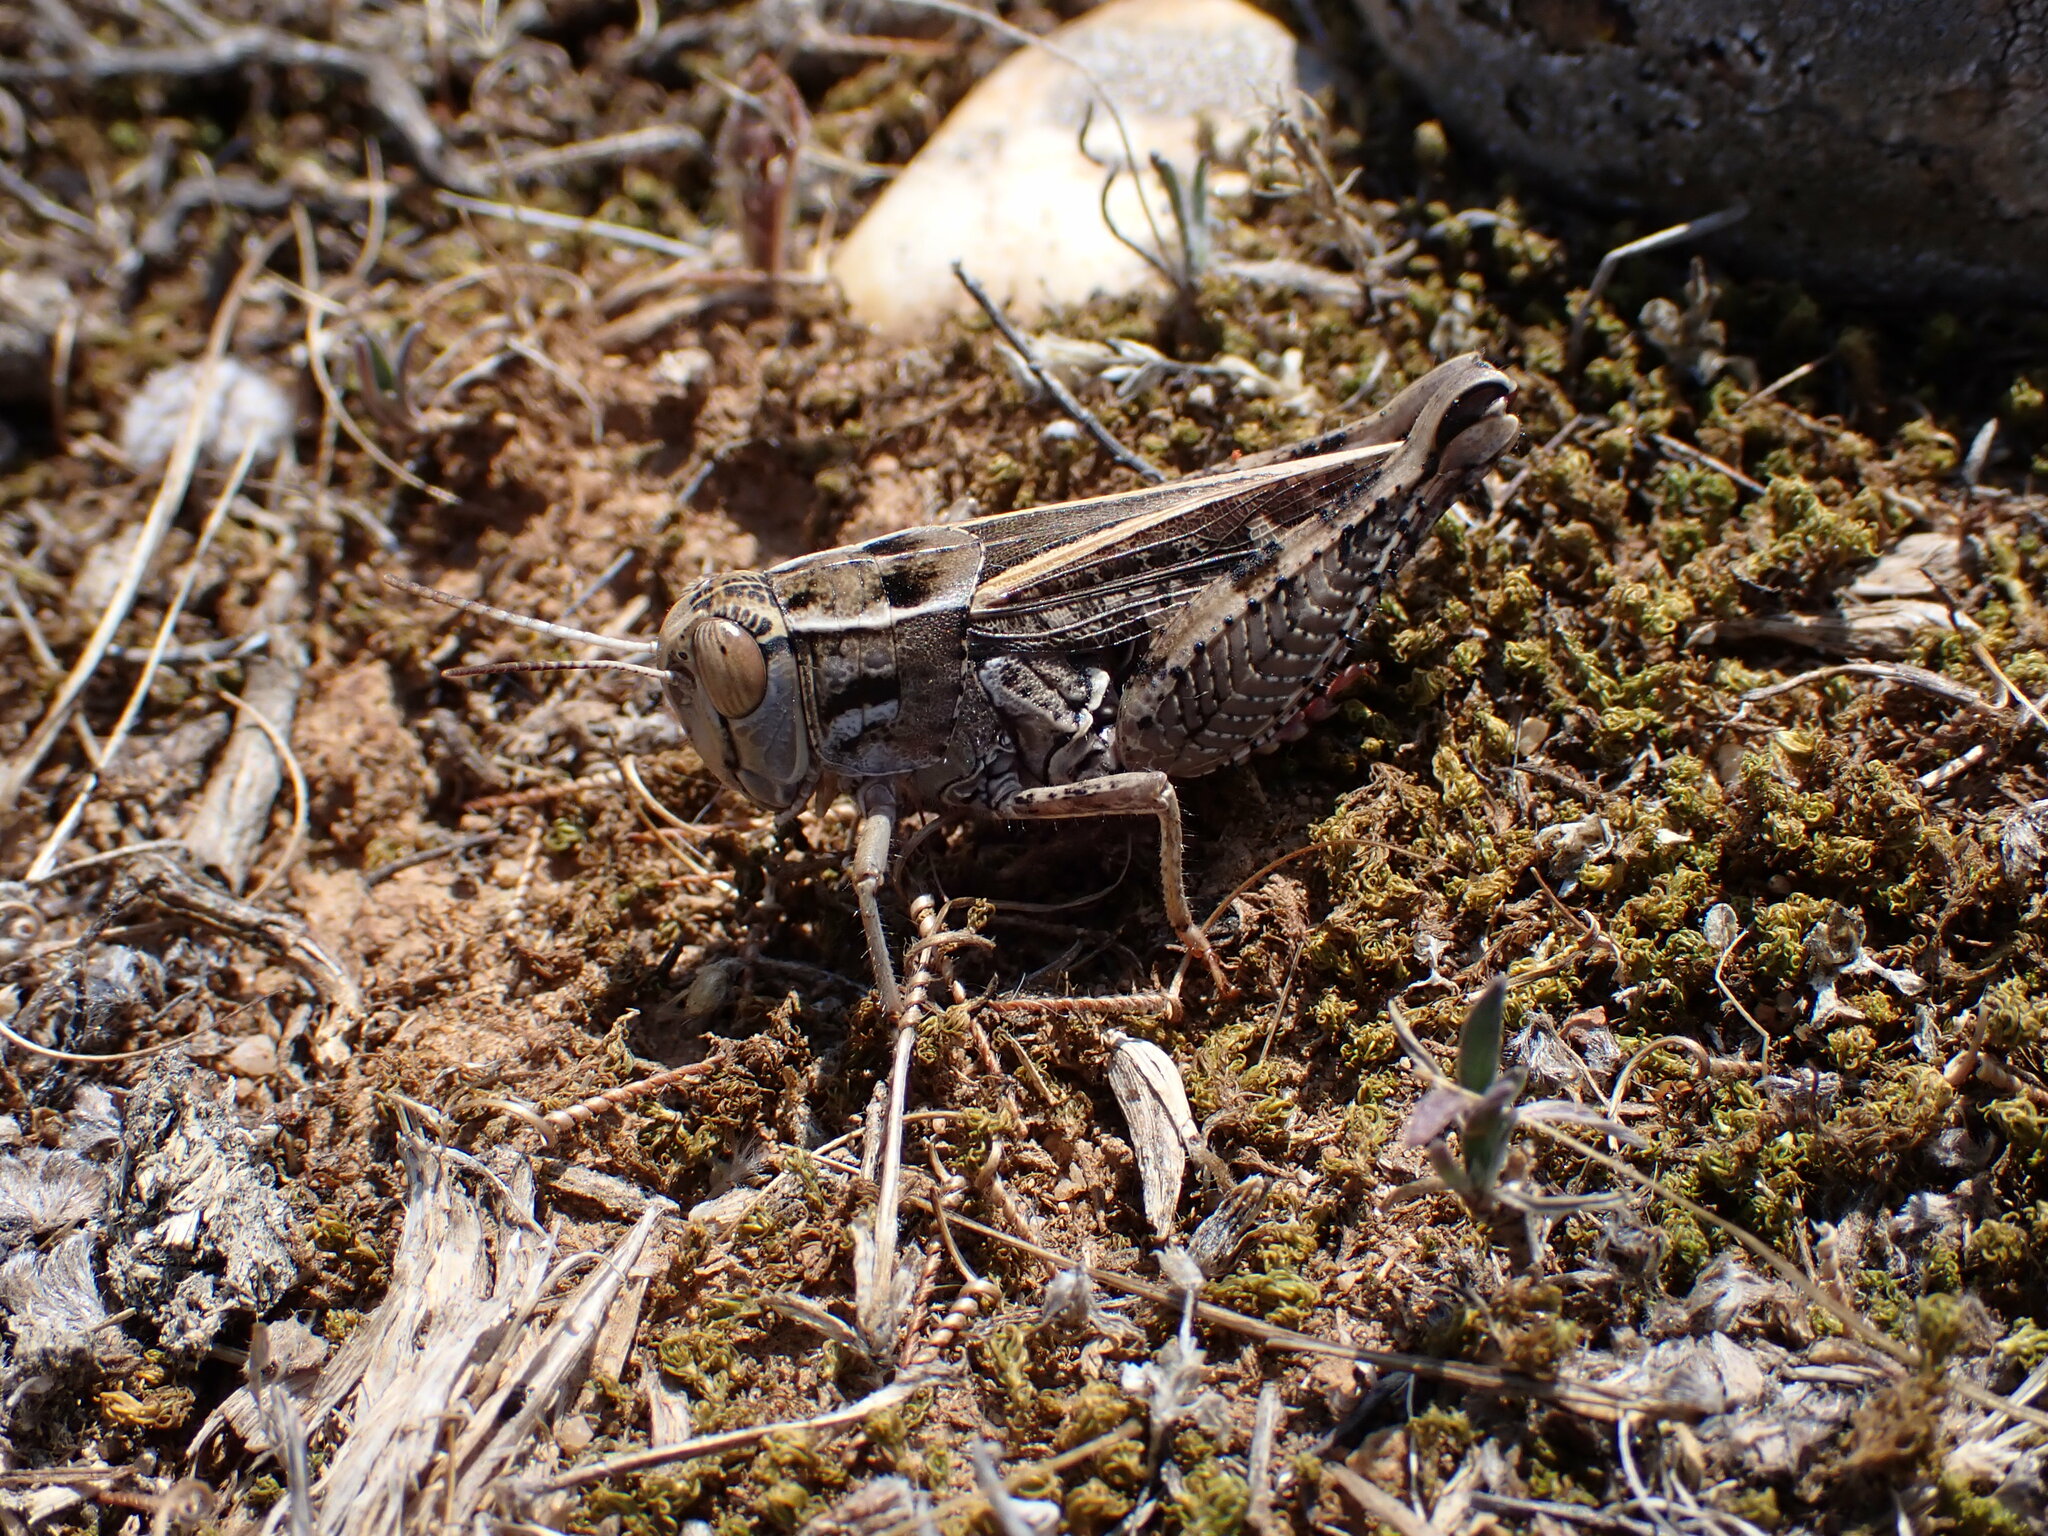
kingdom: Animalia
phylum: Arthropoda
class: Insecta
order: Orthoptera
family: Acrididae
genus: Calliptamus
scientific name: Calliptamus wattenwylianus
